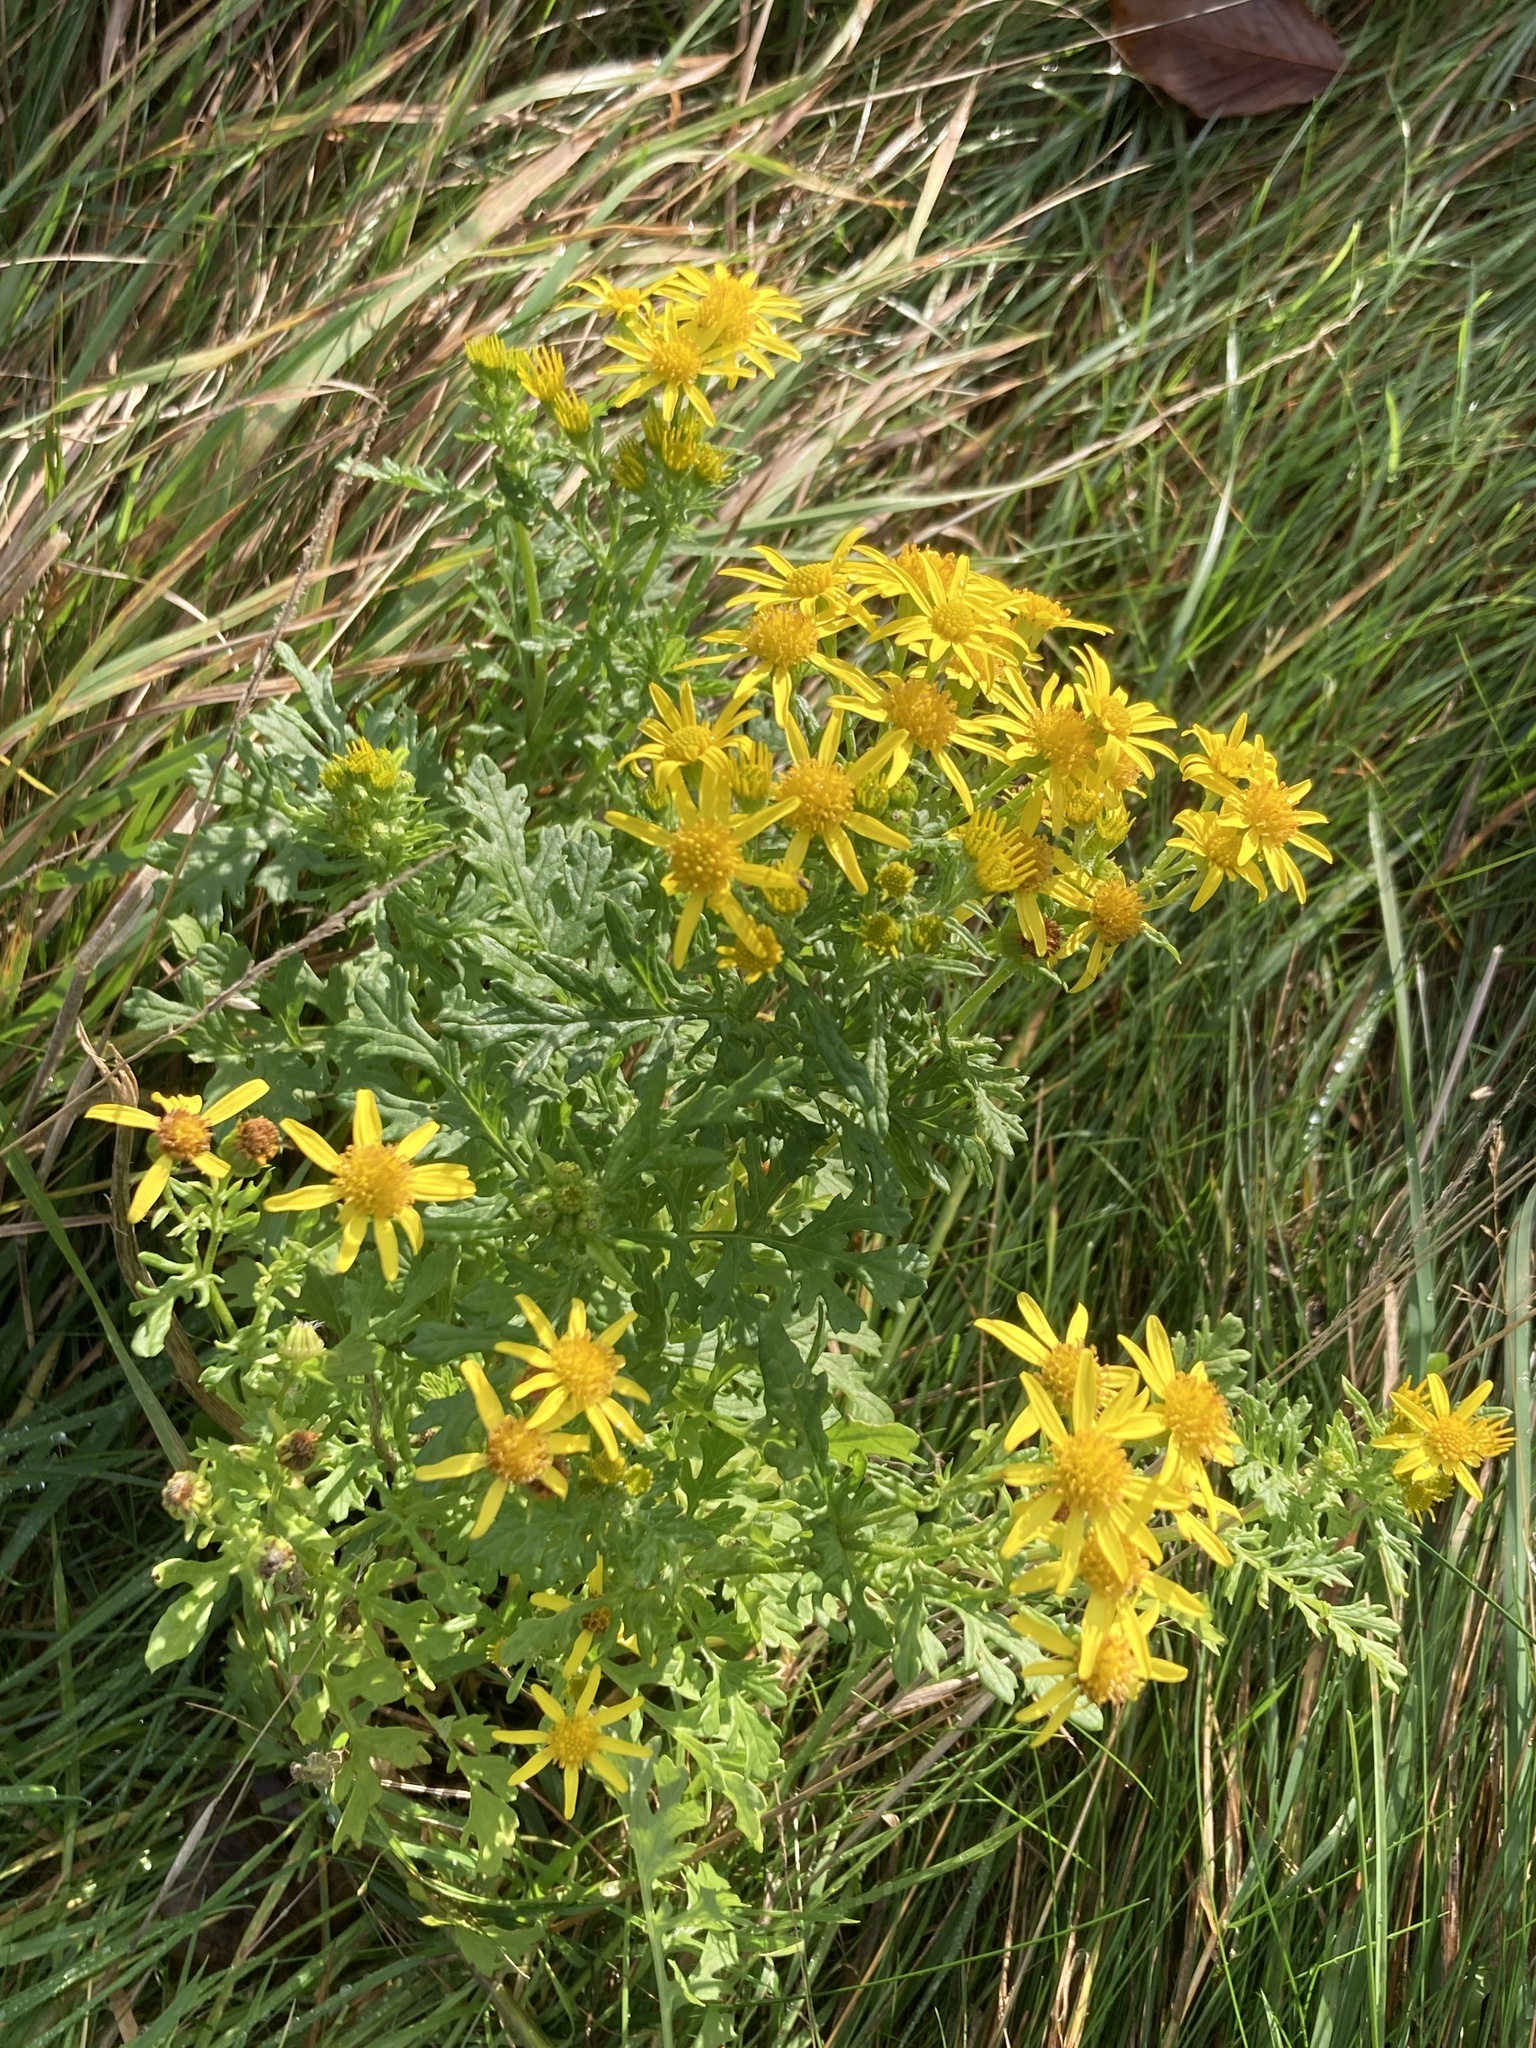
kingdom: Plantae
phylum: Tracheophyta
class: Magnoliopsida
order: Asterales
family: Asteraceae
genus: Jacobaea
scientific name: Jacobaea vulgaris
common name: Stinking willie
